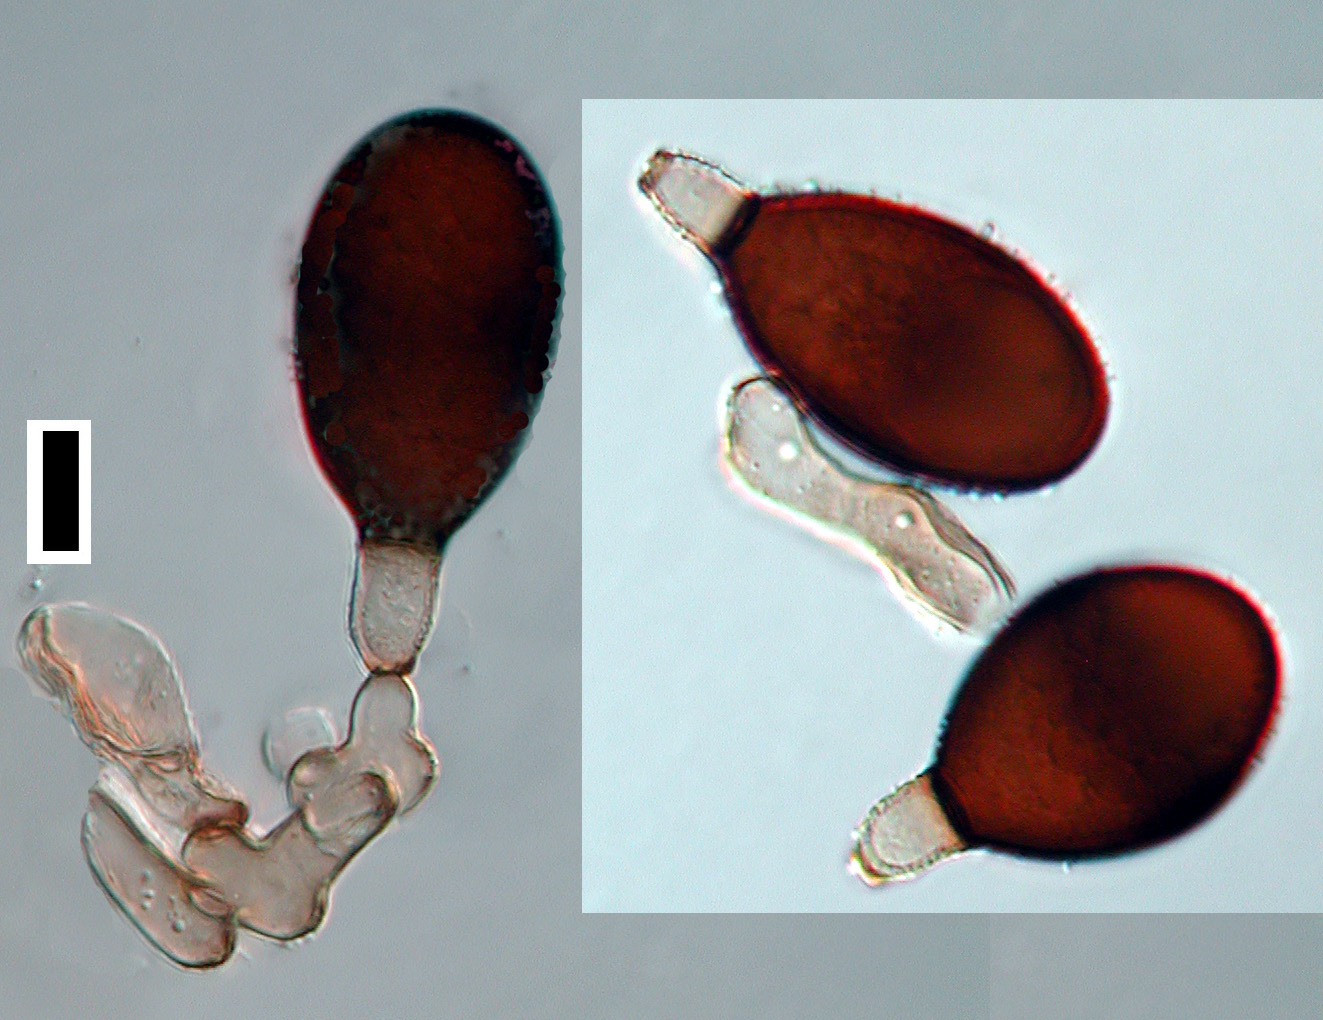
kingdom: Fungi
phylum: Ascomycota
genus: Brachydesmiella
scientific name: Brachydesmiella orientalis
